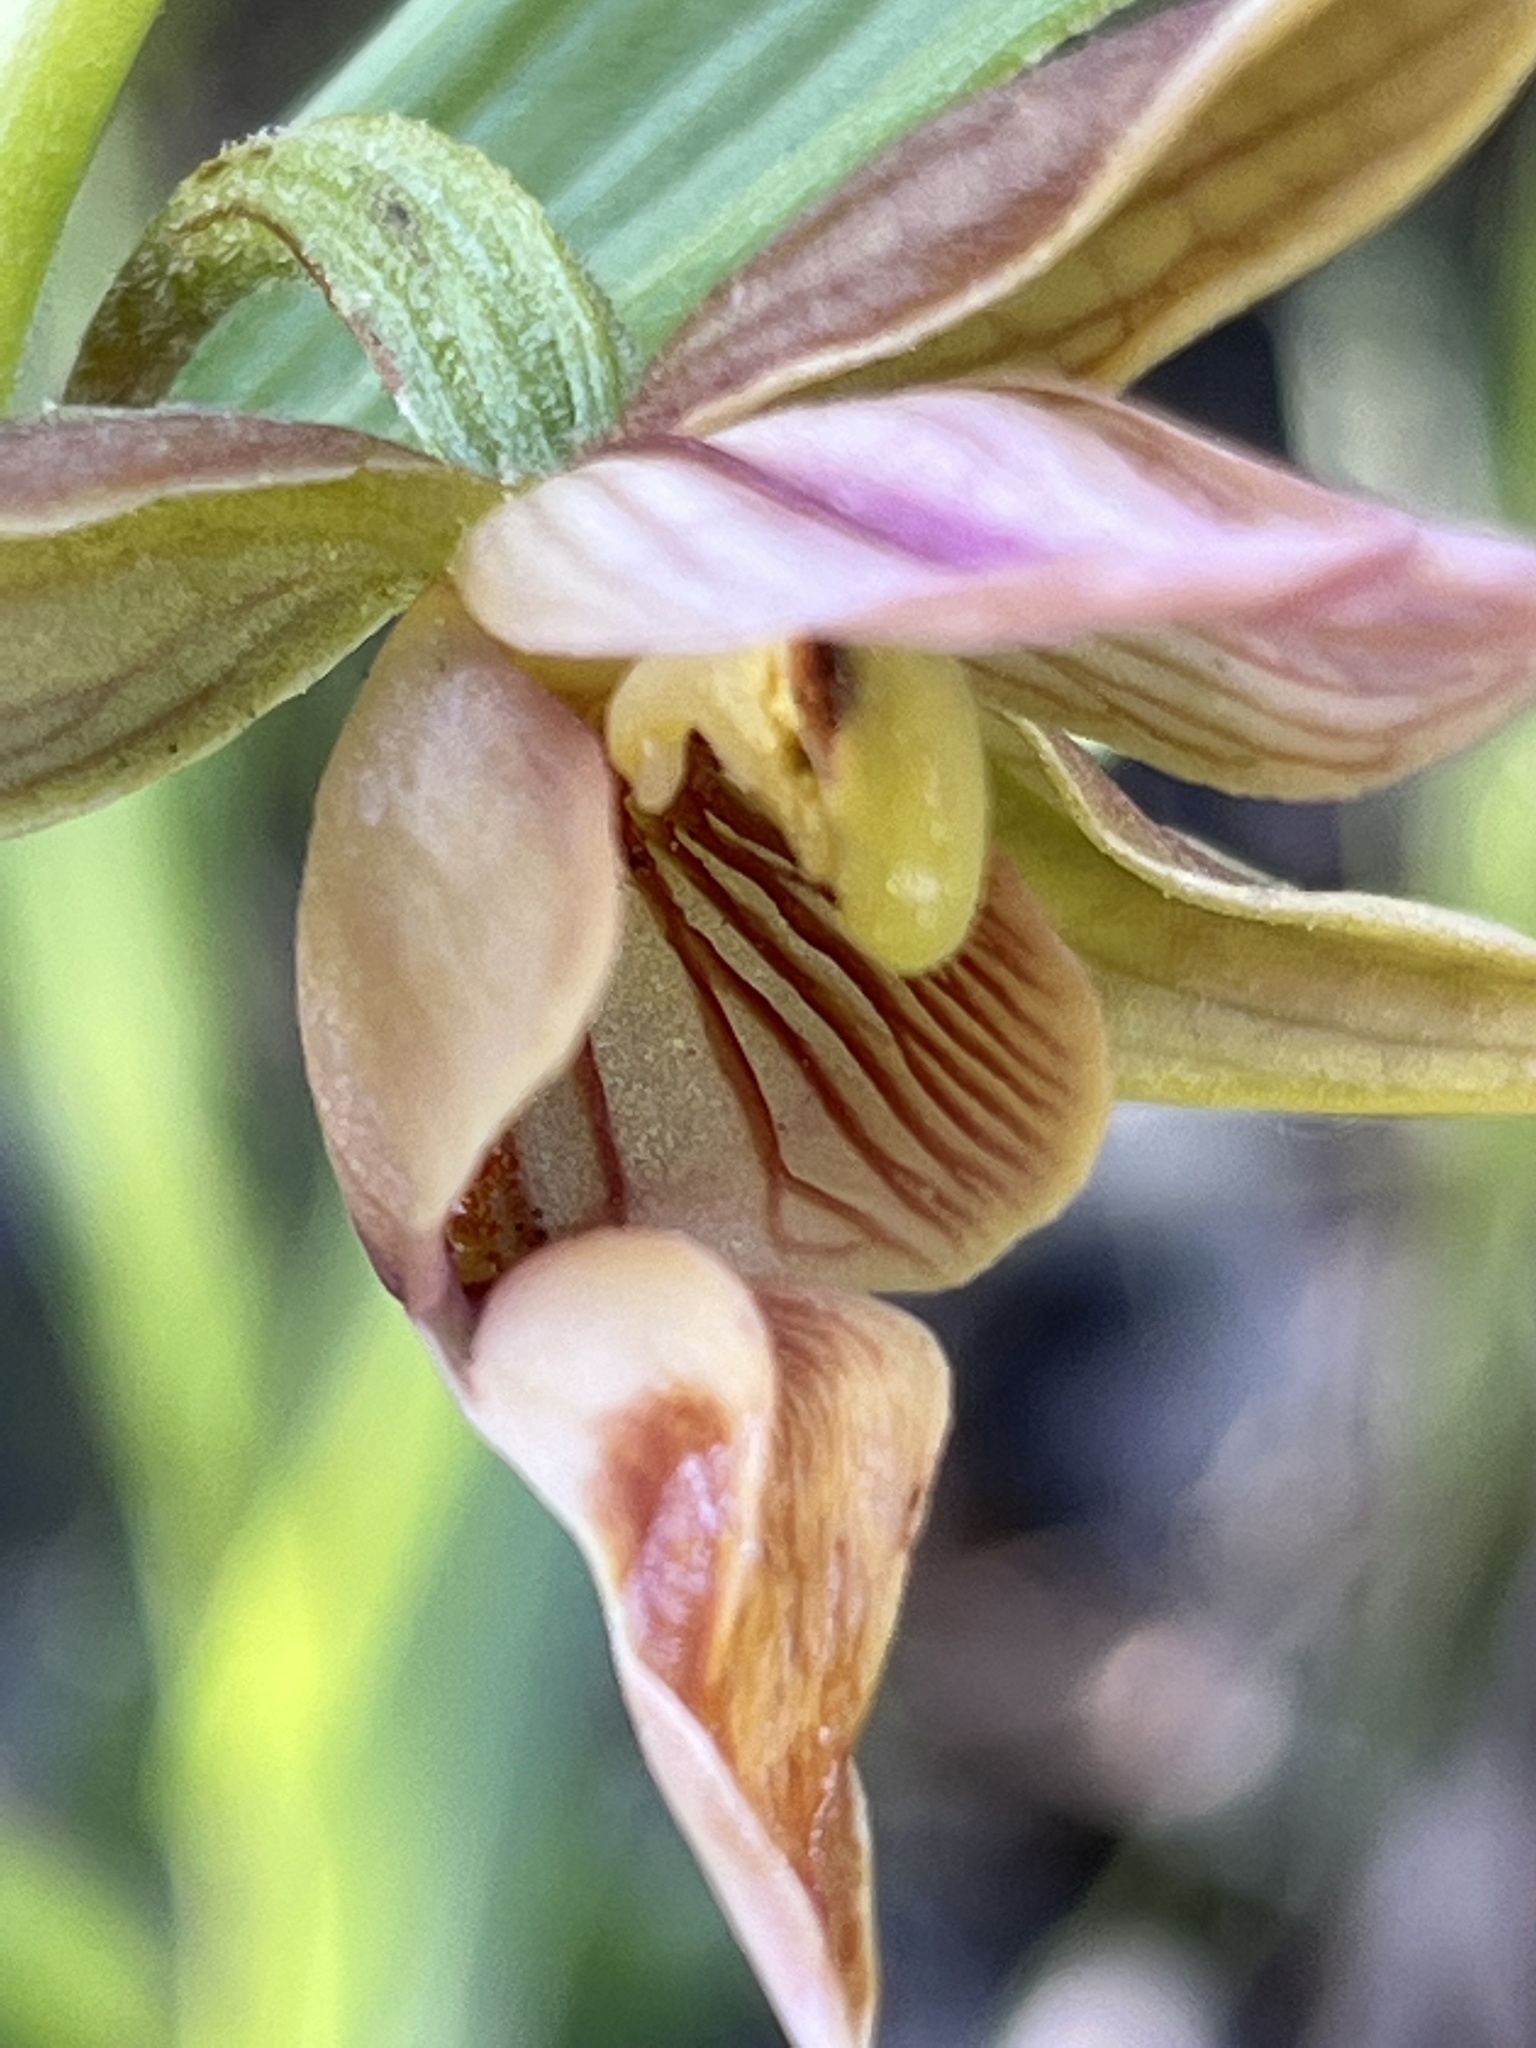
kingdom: Plantae
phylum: Tracheophyta
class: Liliopsida
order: Asparagales
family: Orchidaceae
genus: Epipactis
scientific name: Epipactis gigantea
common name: Chatterbox
